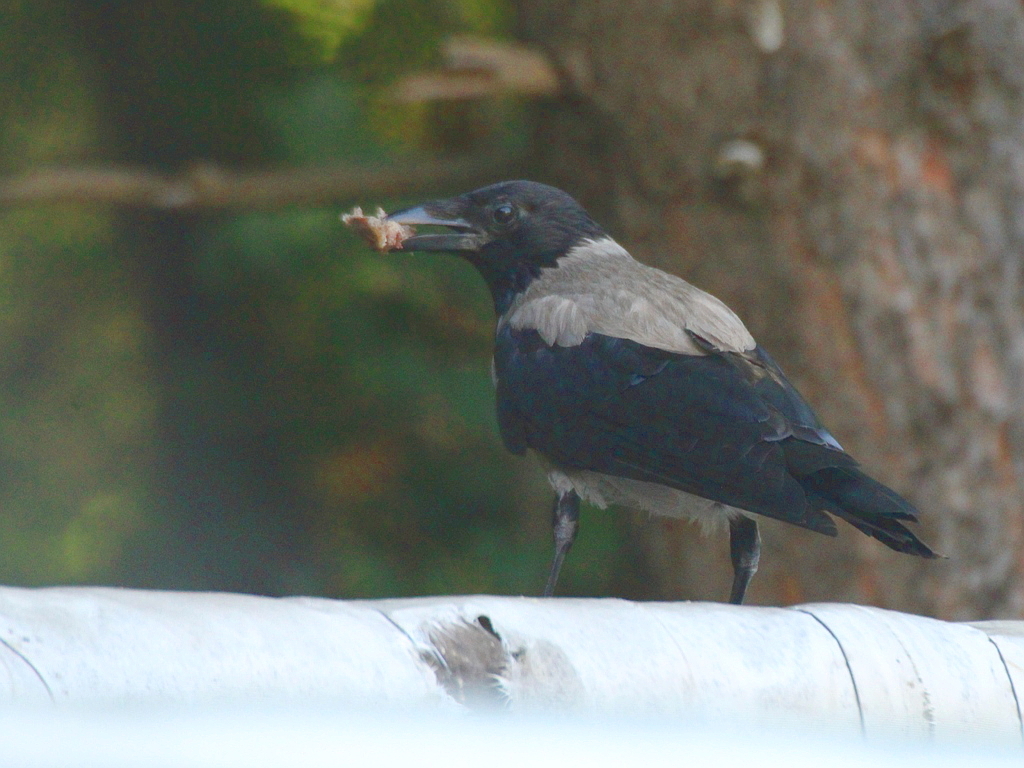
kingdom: Animalia
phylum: Chordata
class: Aves
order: Passeriformes
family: Corvidae
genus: Corvus
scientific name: Corvus cornix
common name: Hooded crow
